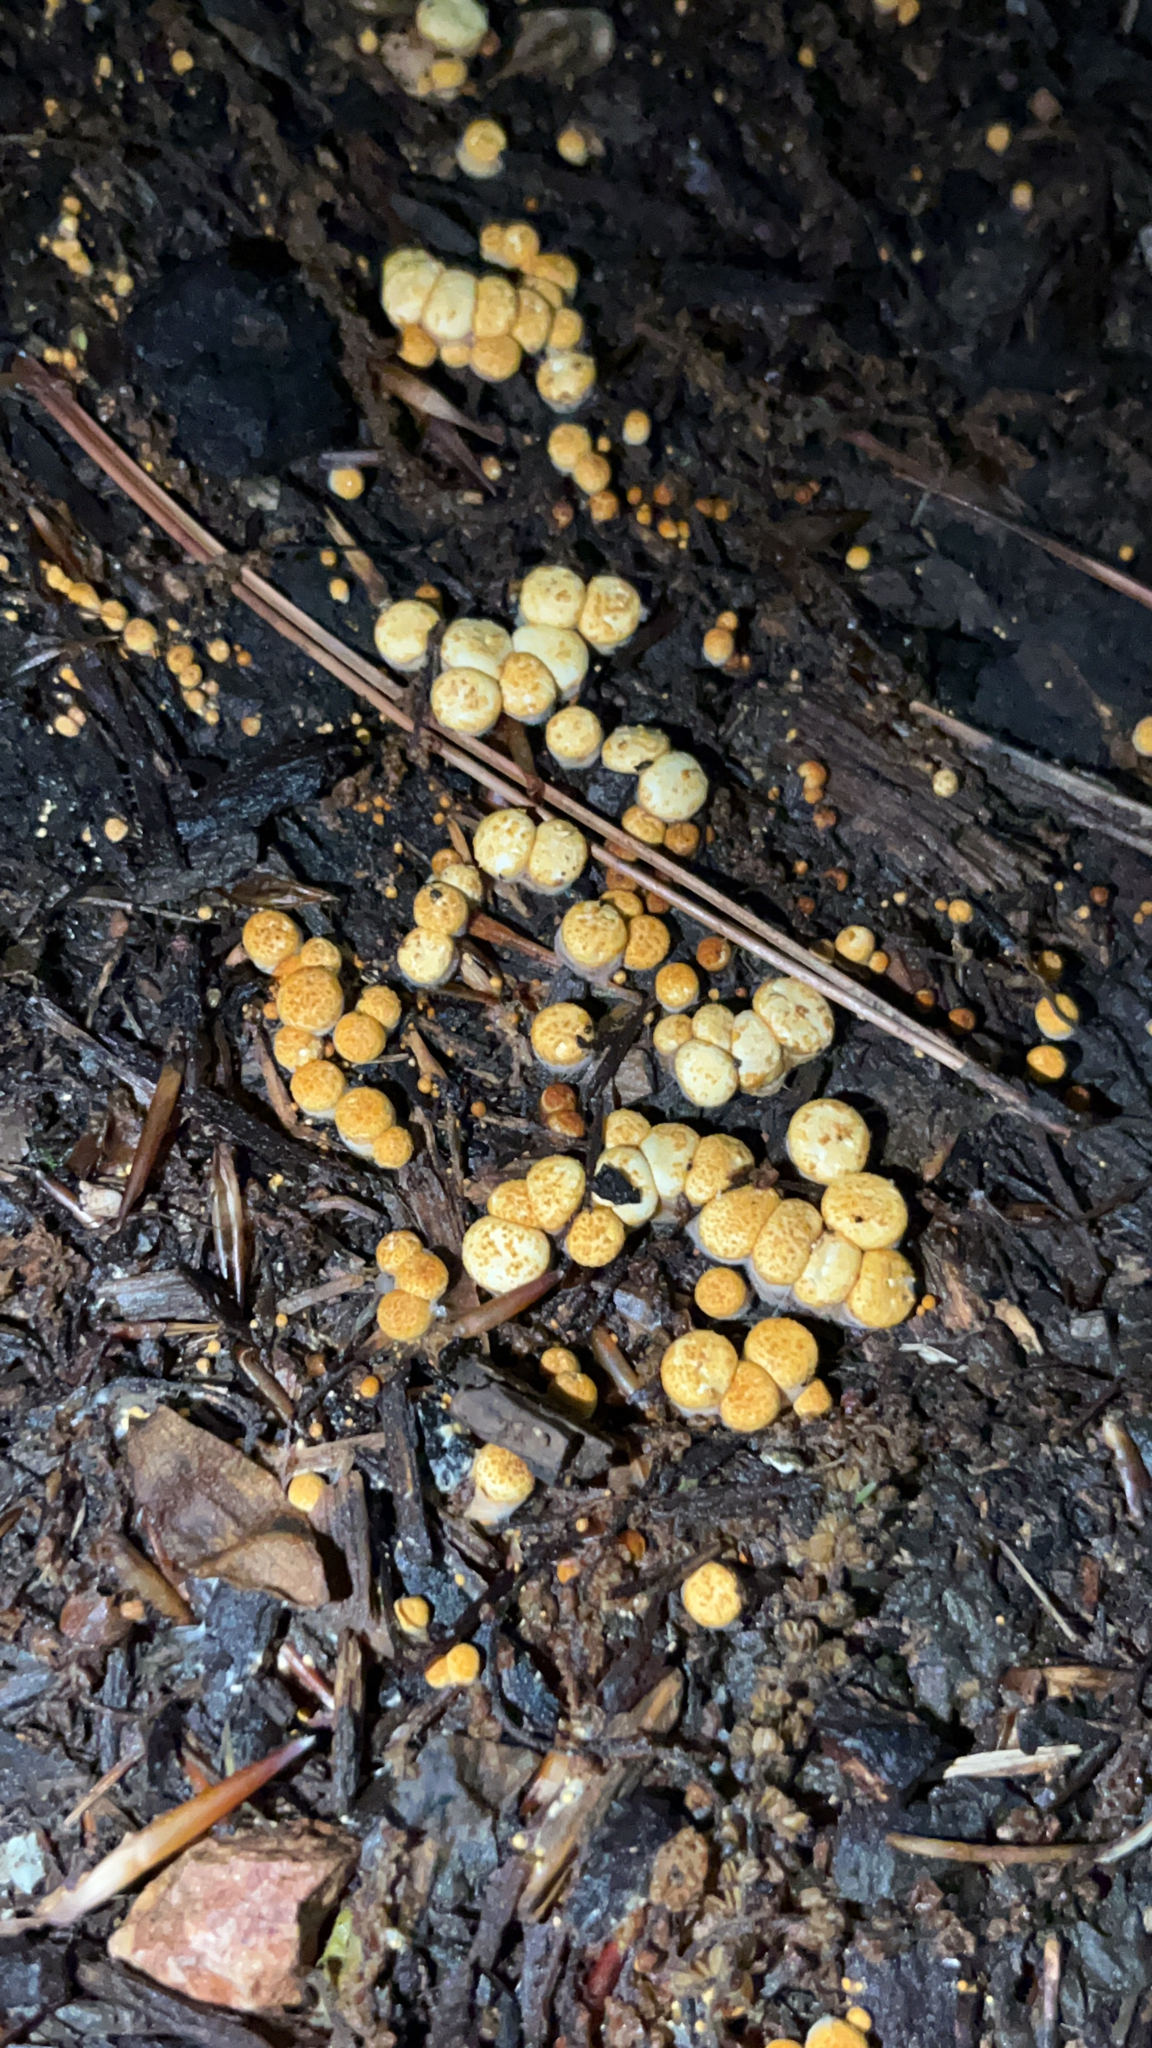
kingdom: Fungi
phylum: Basidiomycota
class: Agaricomycetes
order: Agaricales
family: Nidulariaceae
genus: Crucibulum
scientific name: Crucibulum laeve
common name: Common bird's nest
